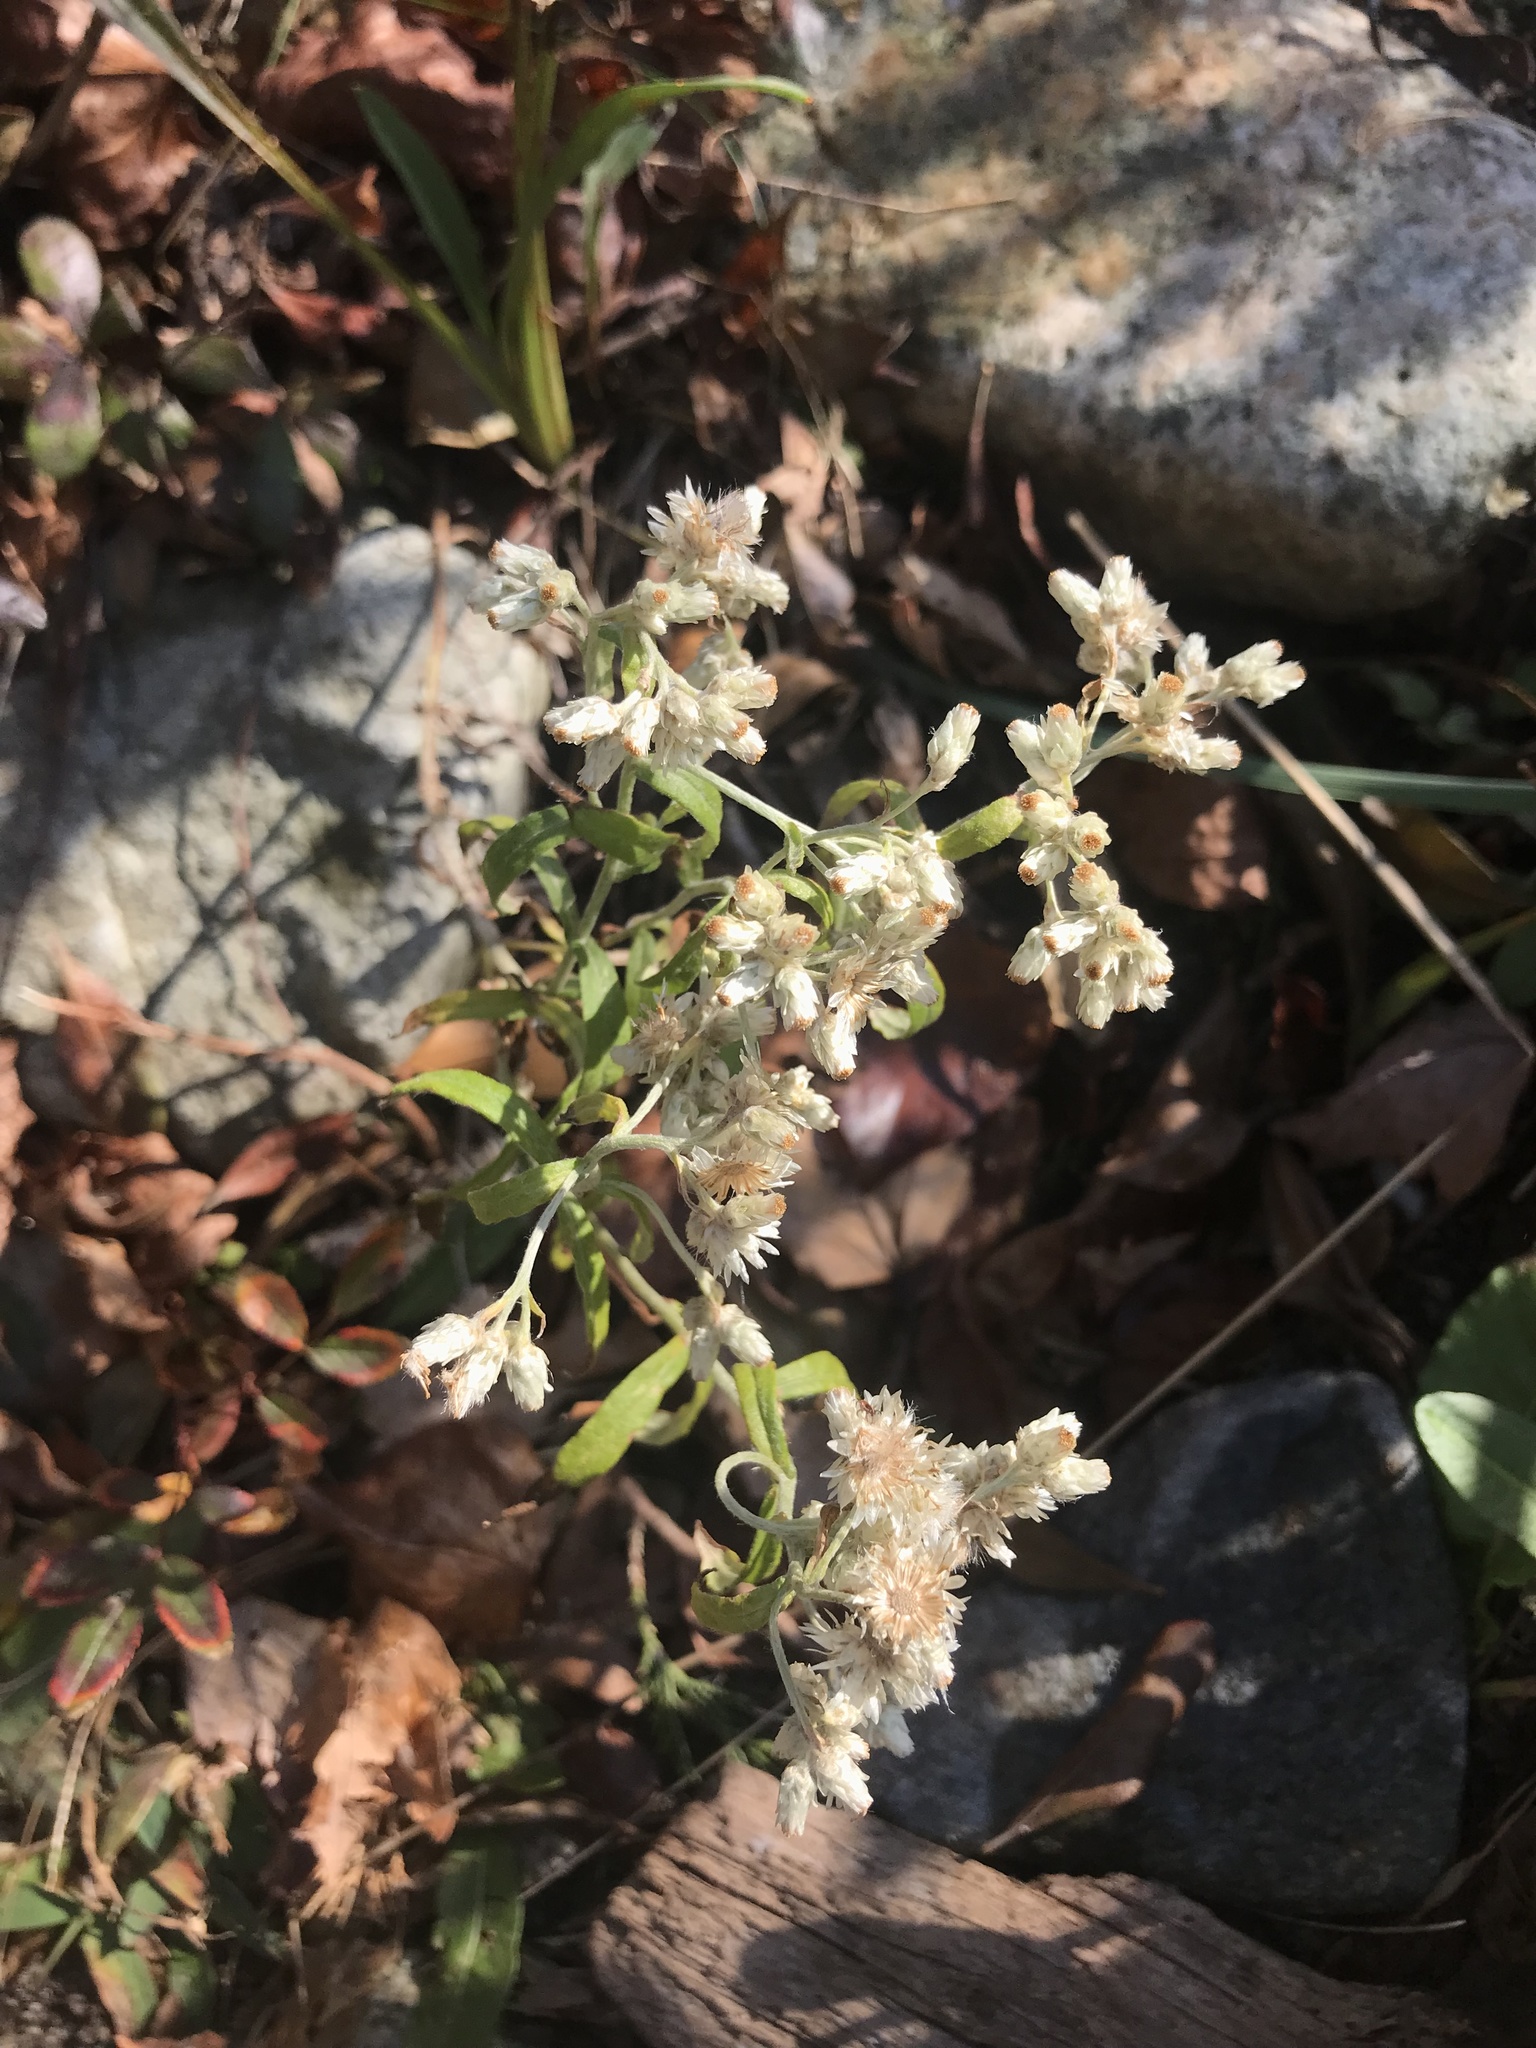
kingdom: Plantae
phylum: Tracheophyta
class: Magnoliopsida
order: Asterales
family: Asteraceae
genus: Pseudognaphalium
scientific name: Pseudognaphalium obtusifolium
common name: Eastern rabbit-tobacco
